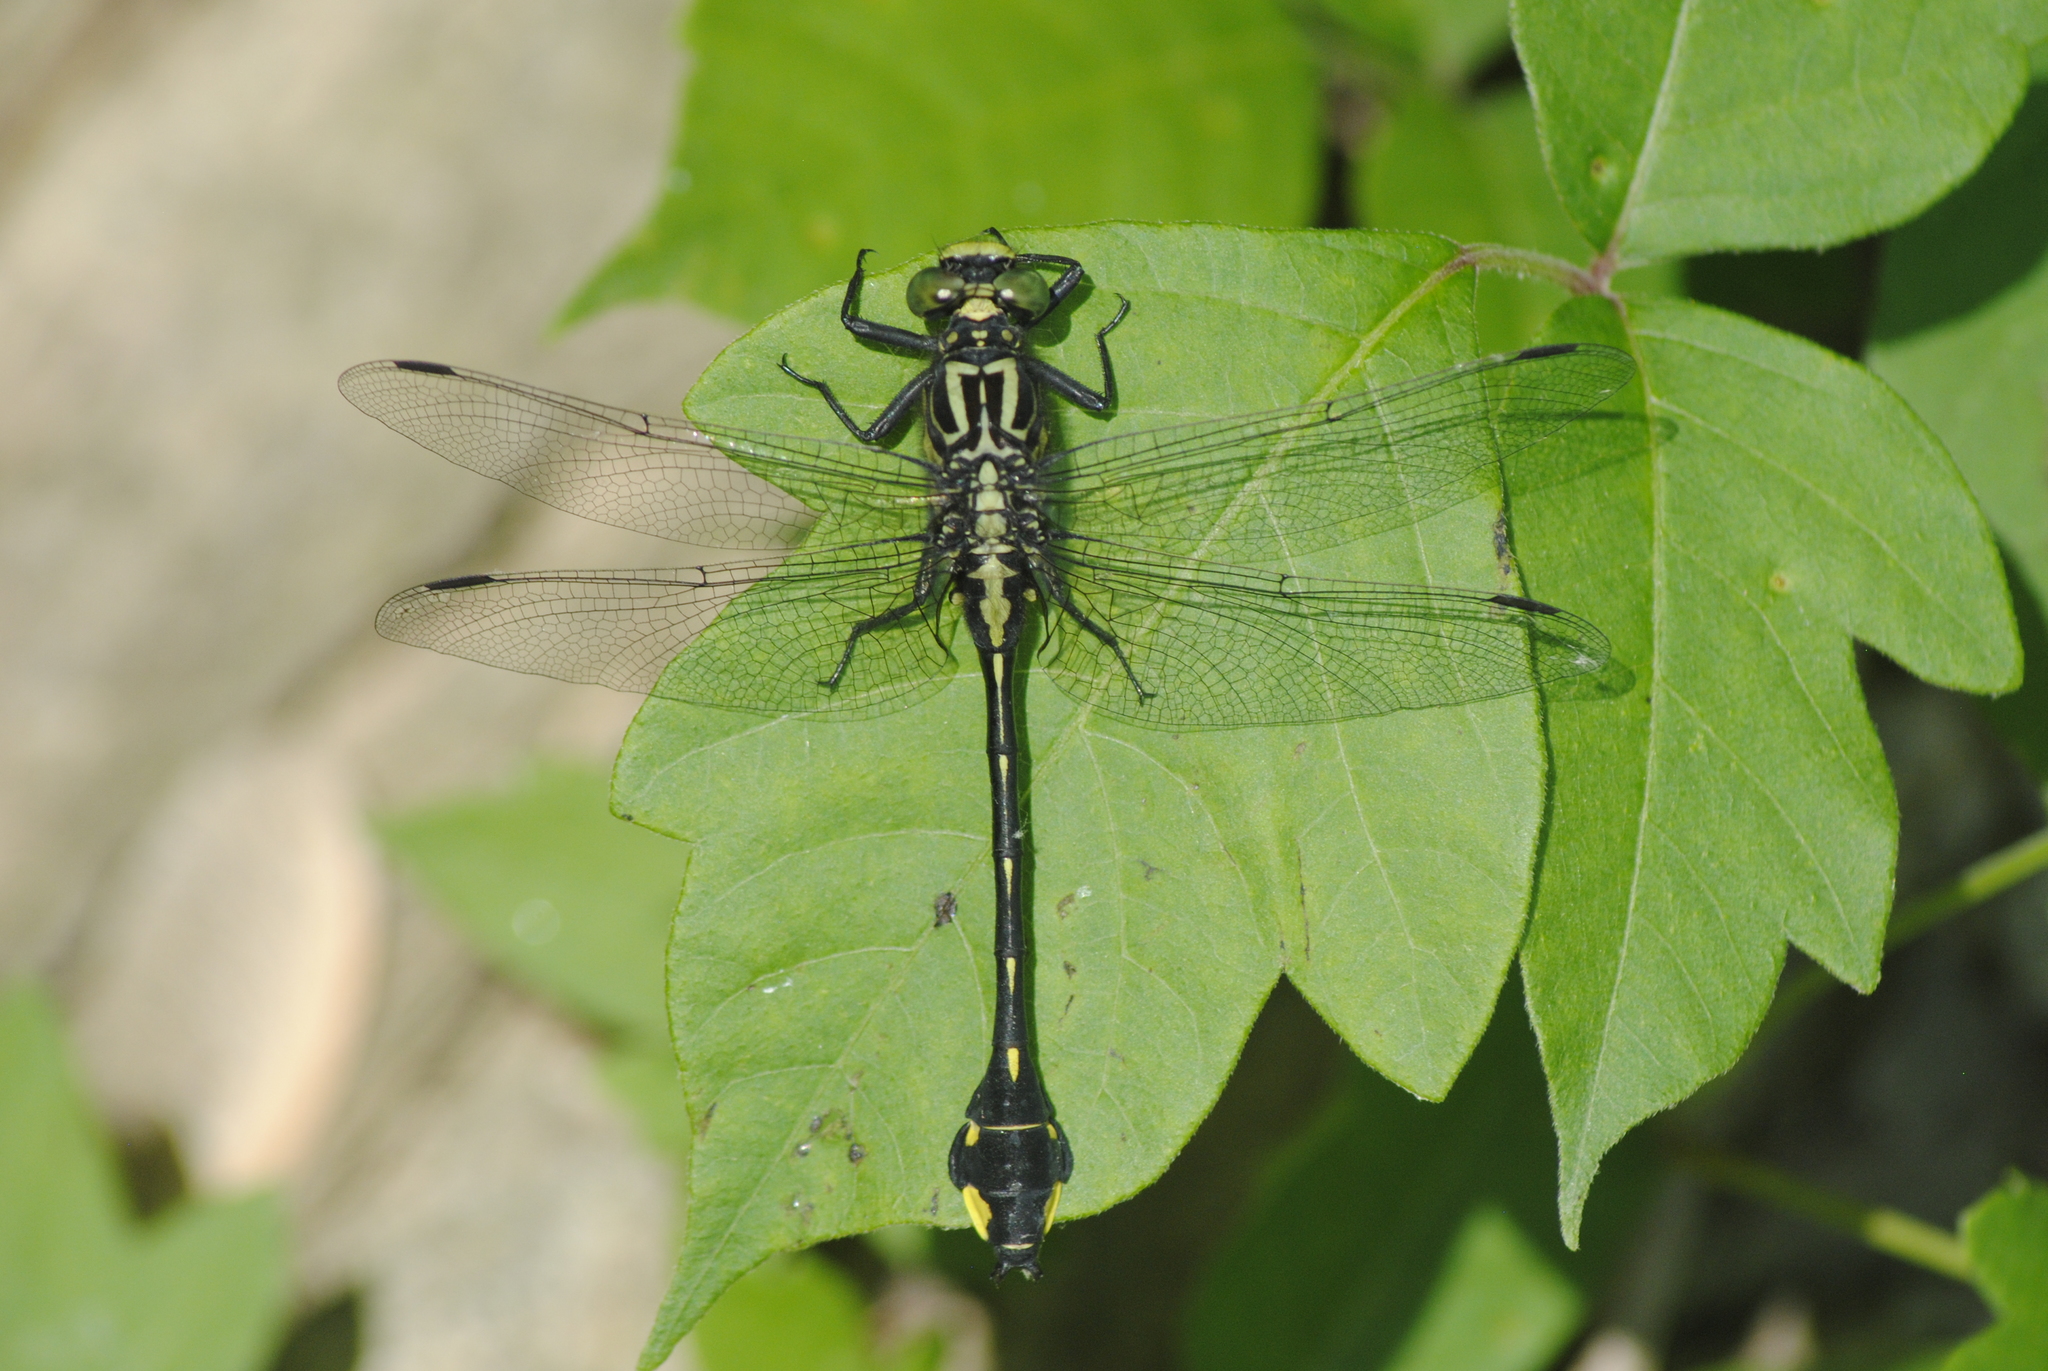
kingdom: Animalia
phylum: Arthropoda
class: Insecta
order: Odonata
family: Gomphidae
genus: Gomphurus
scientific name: Gomphurus vastus
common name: Cobra clubtail
